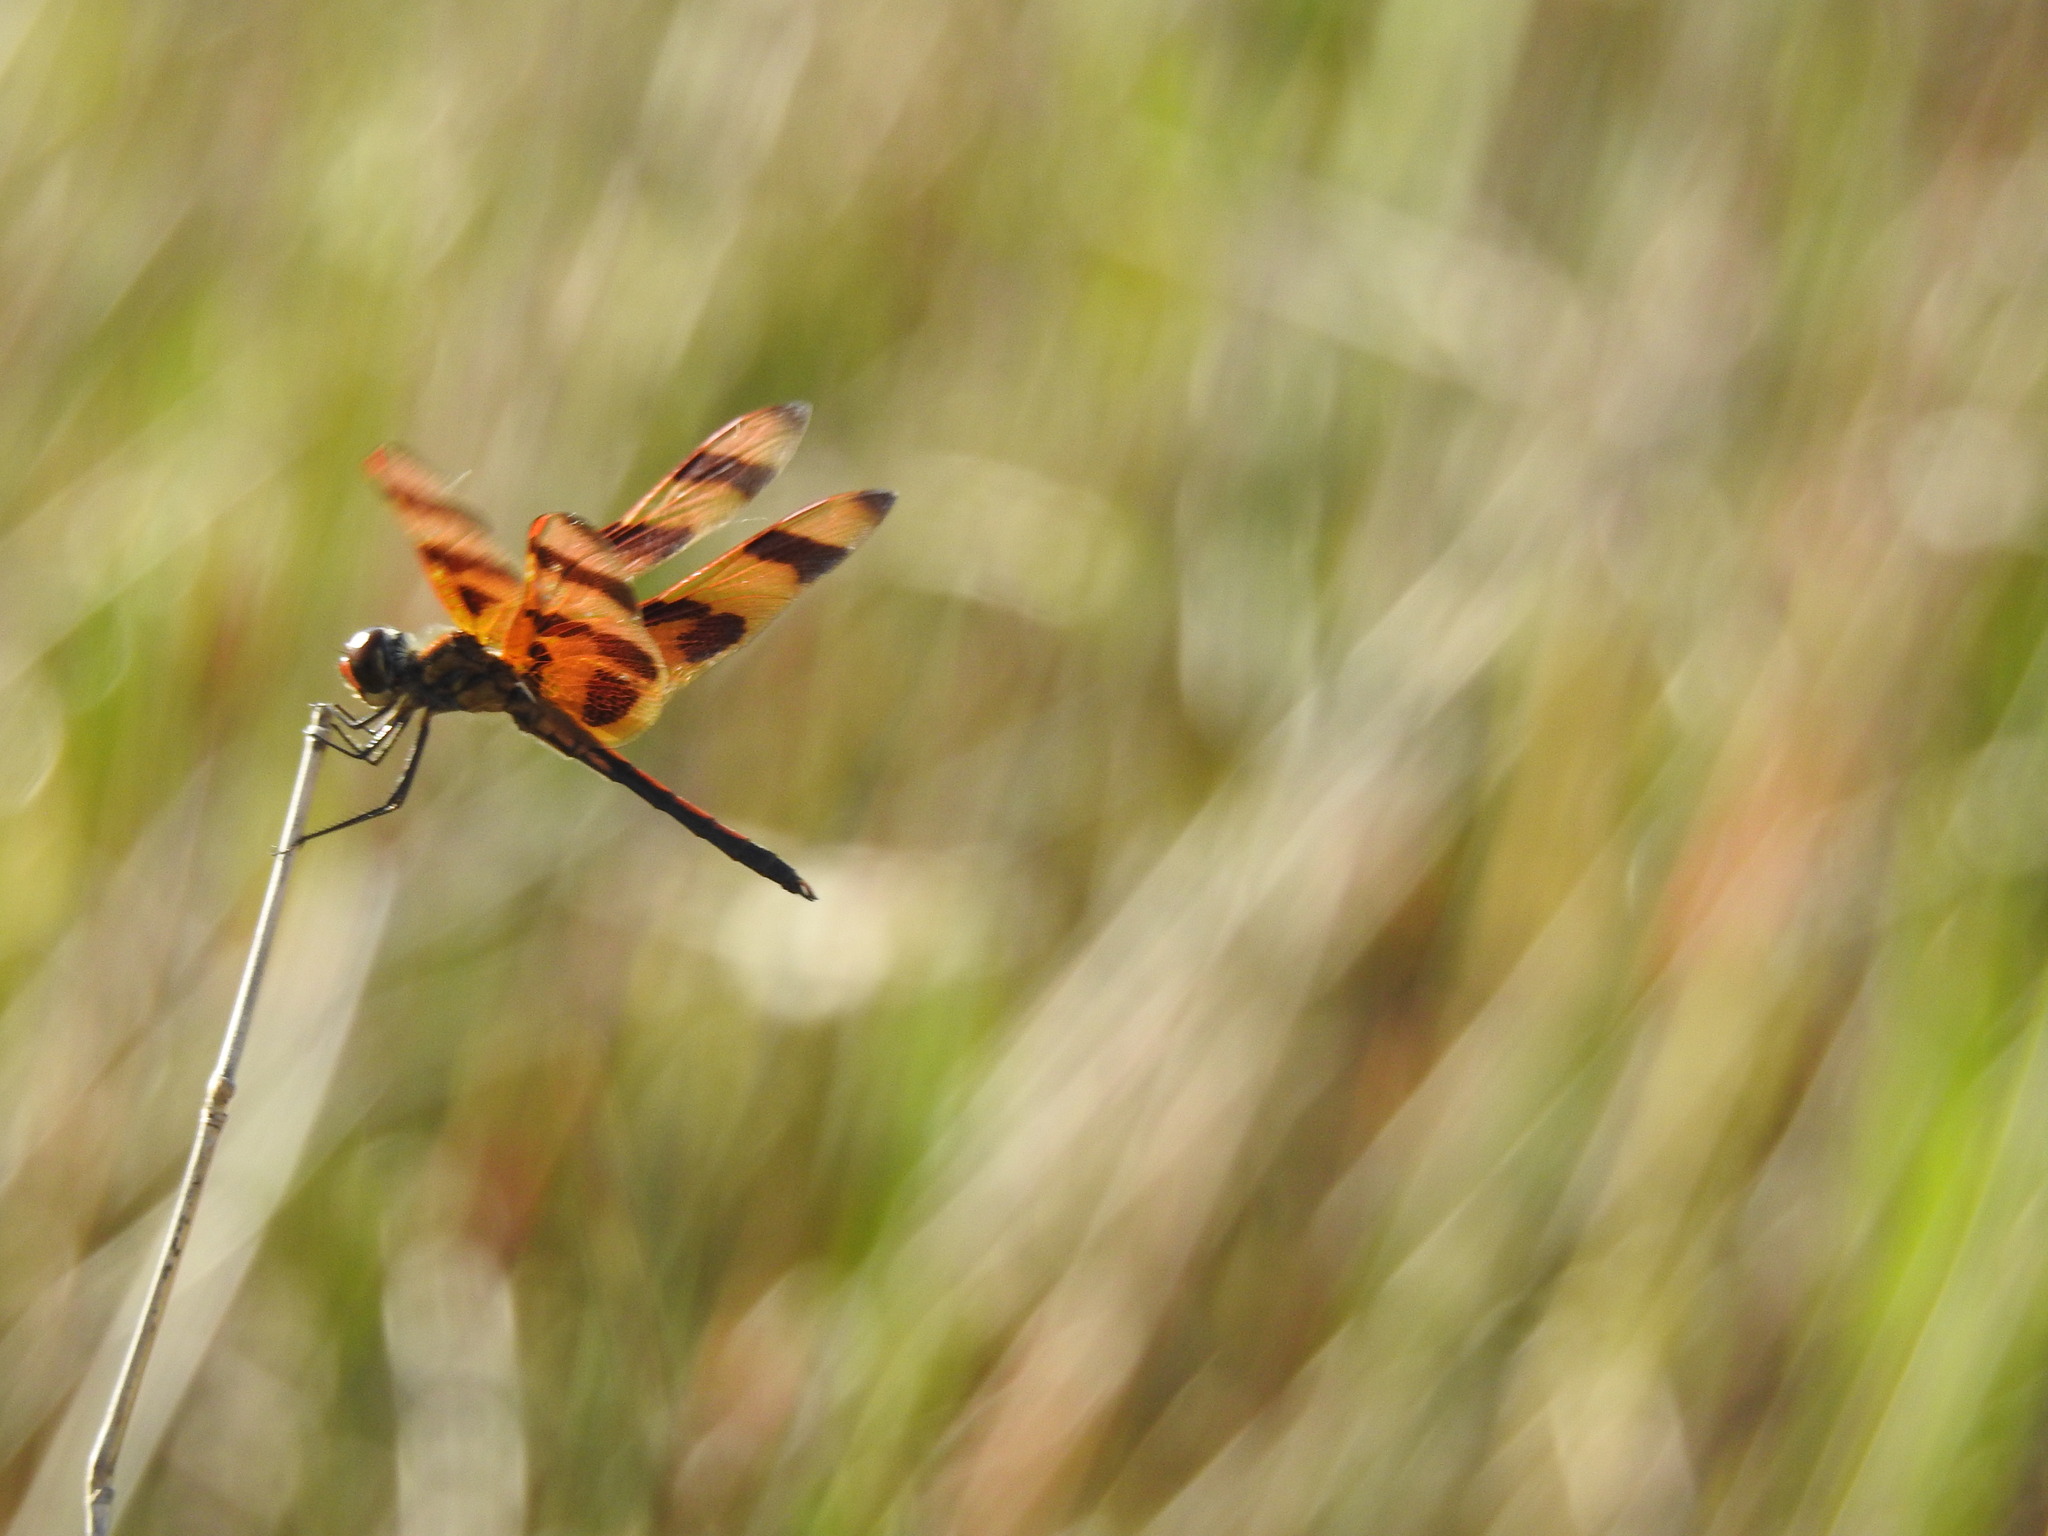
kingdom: Animalia
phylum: Arthropoda
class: Insecta
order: Odonata
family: Libellulidae
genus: Celithemis
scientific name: Celithemis eponina
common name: Halloween pennant
